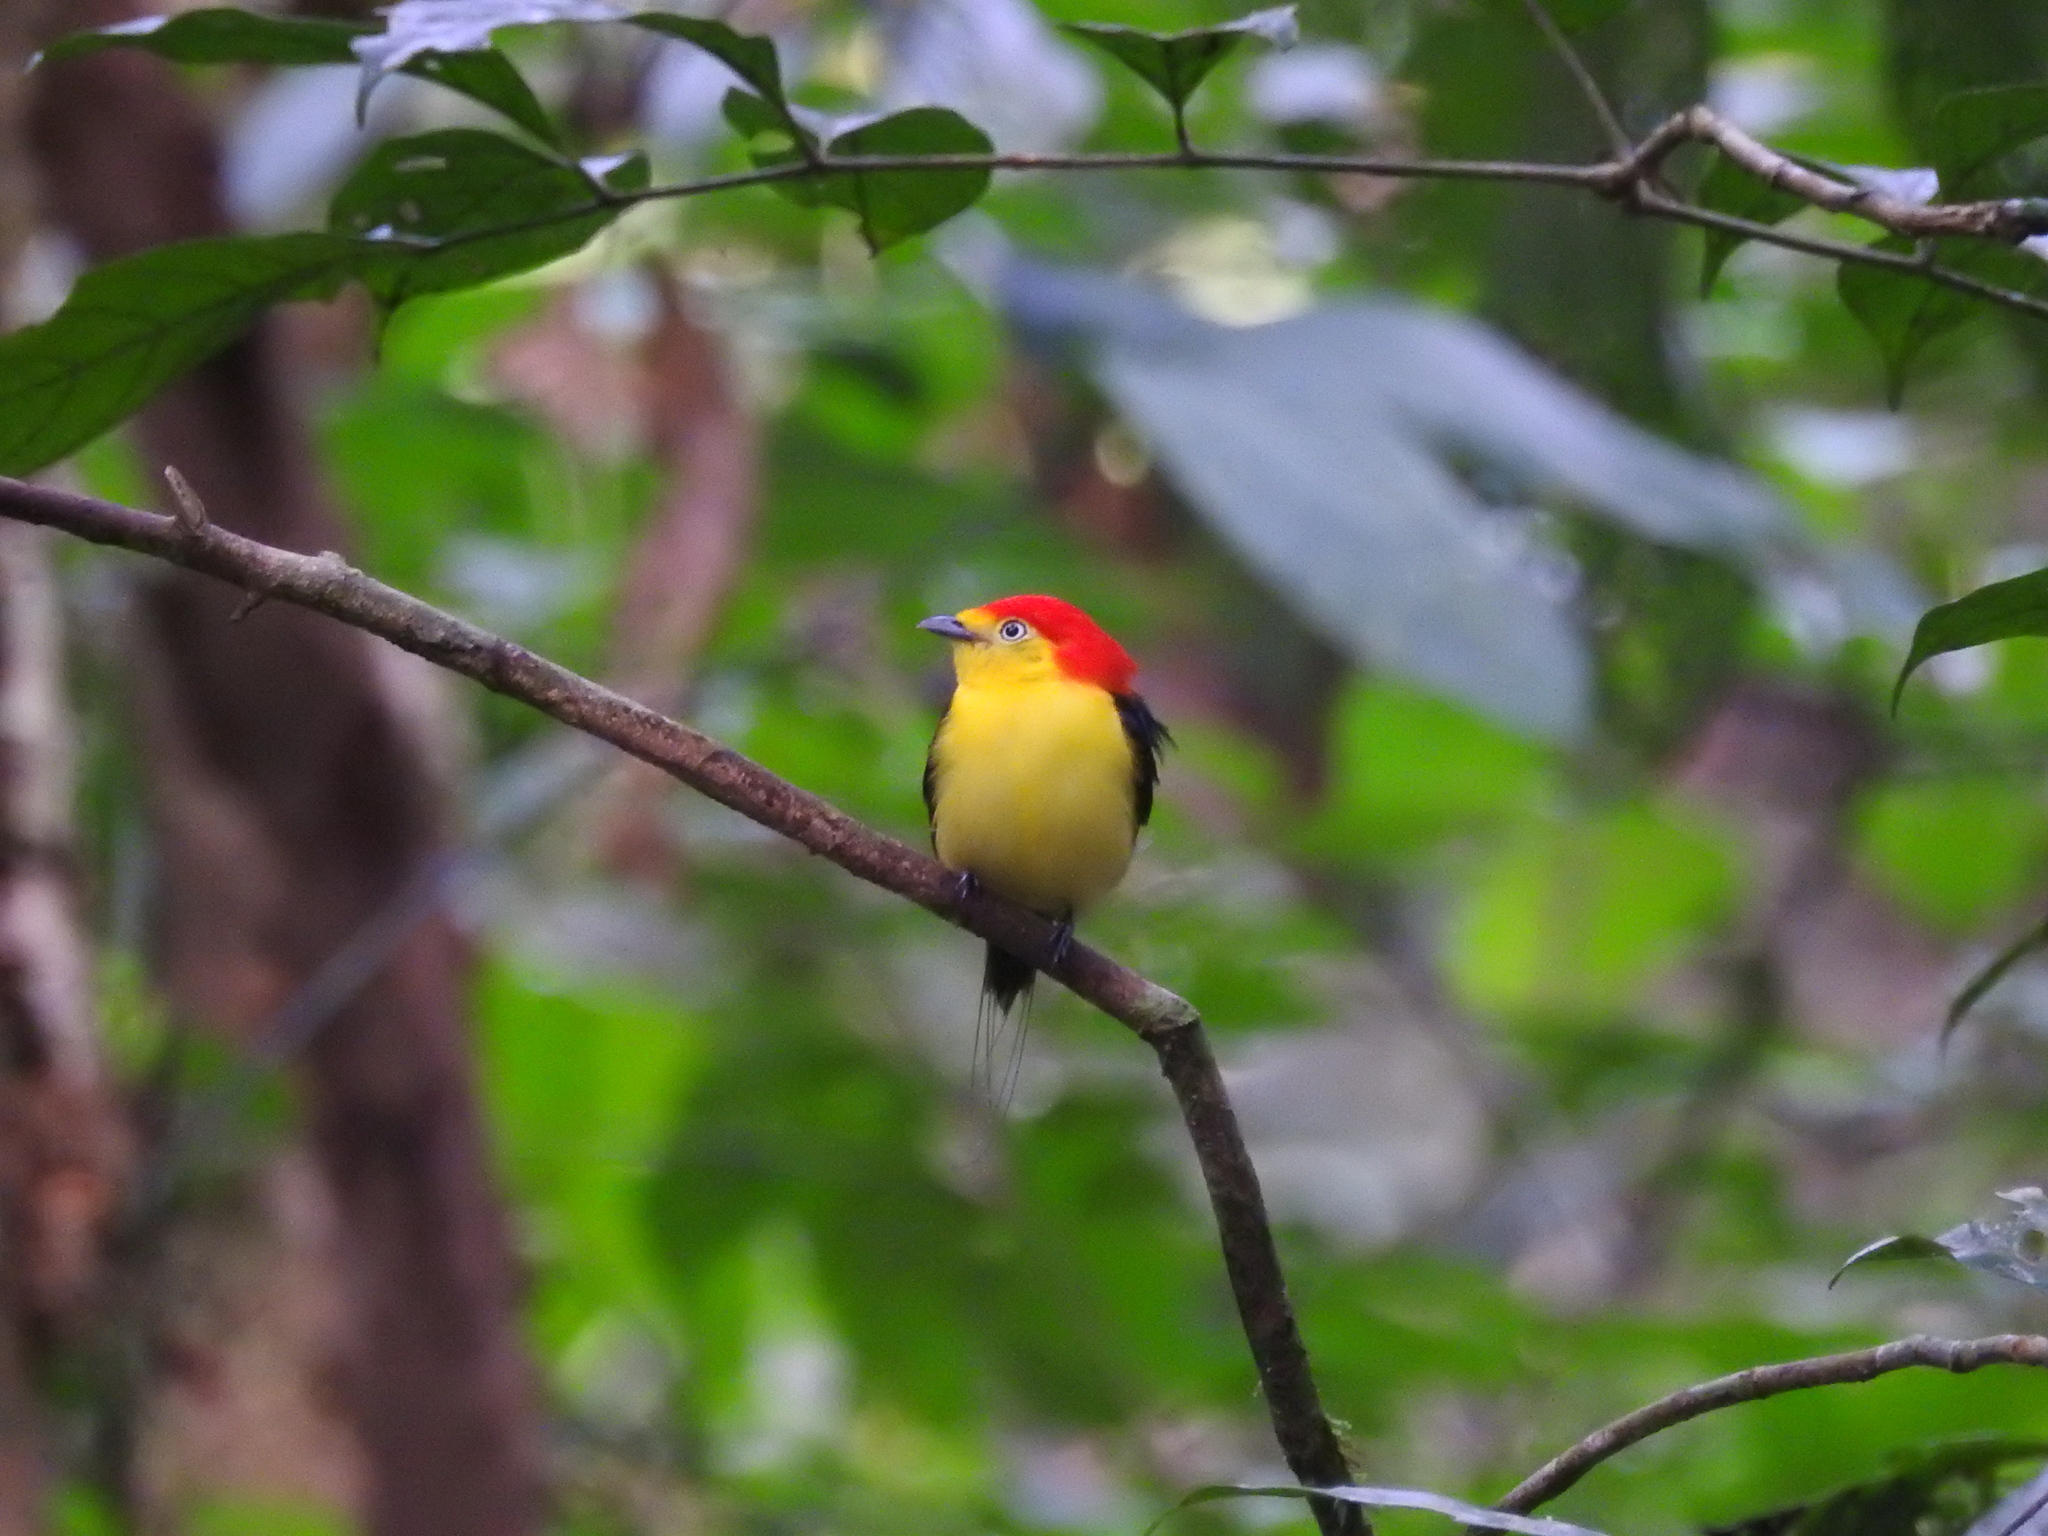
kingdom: Animalia
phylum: Chordata
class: Aves
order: Passeriformes
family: Pipridae
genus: Pipra
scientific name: Pipra filicauda
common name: Wire-tailed manakin
